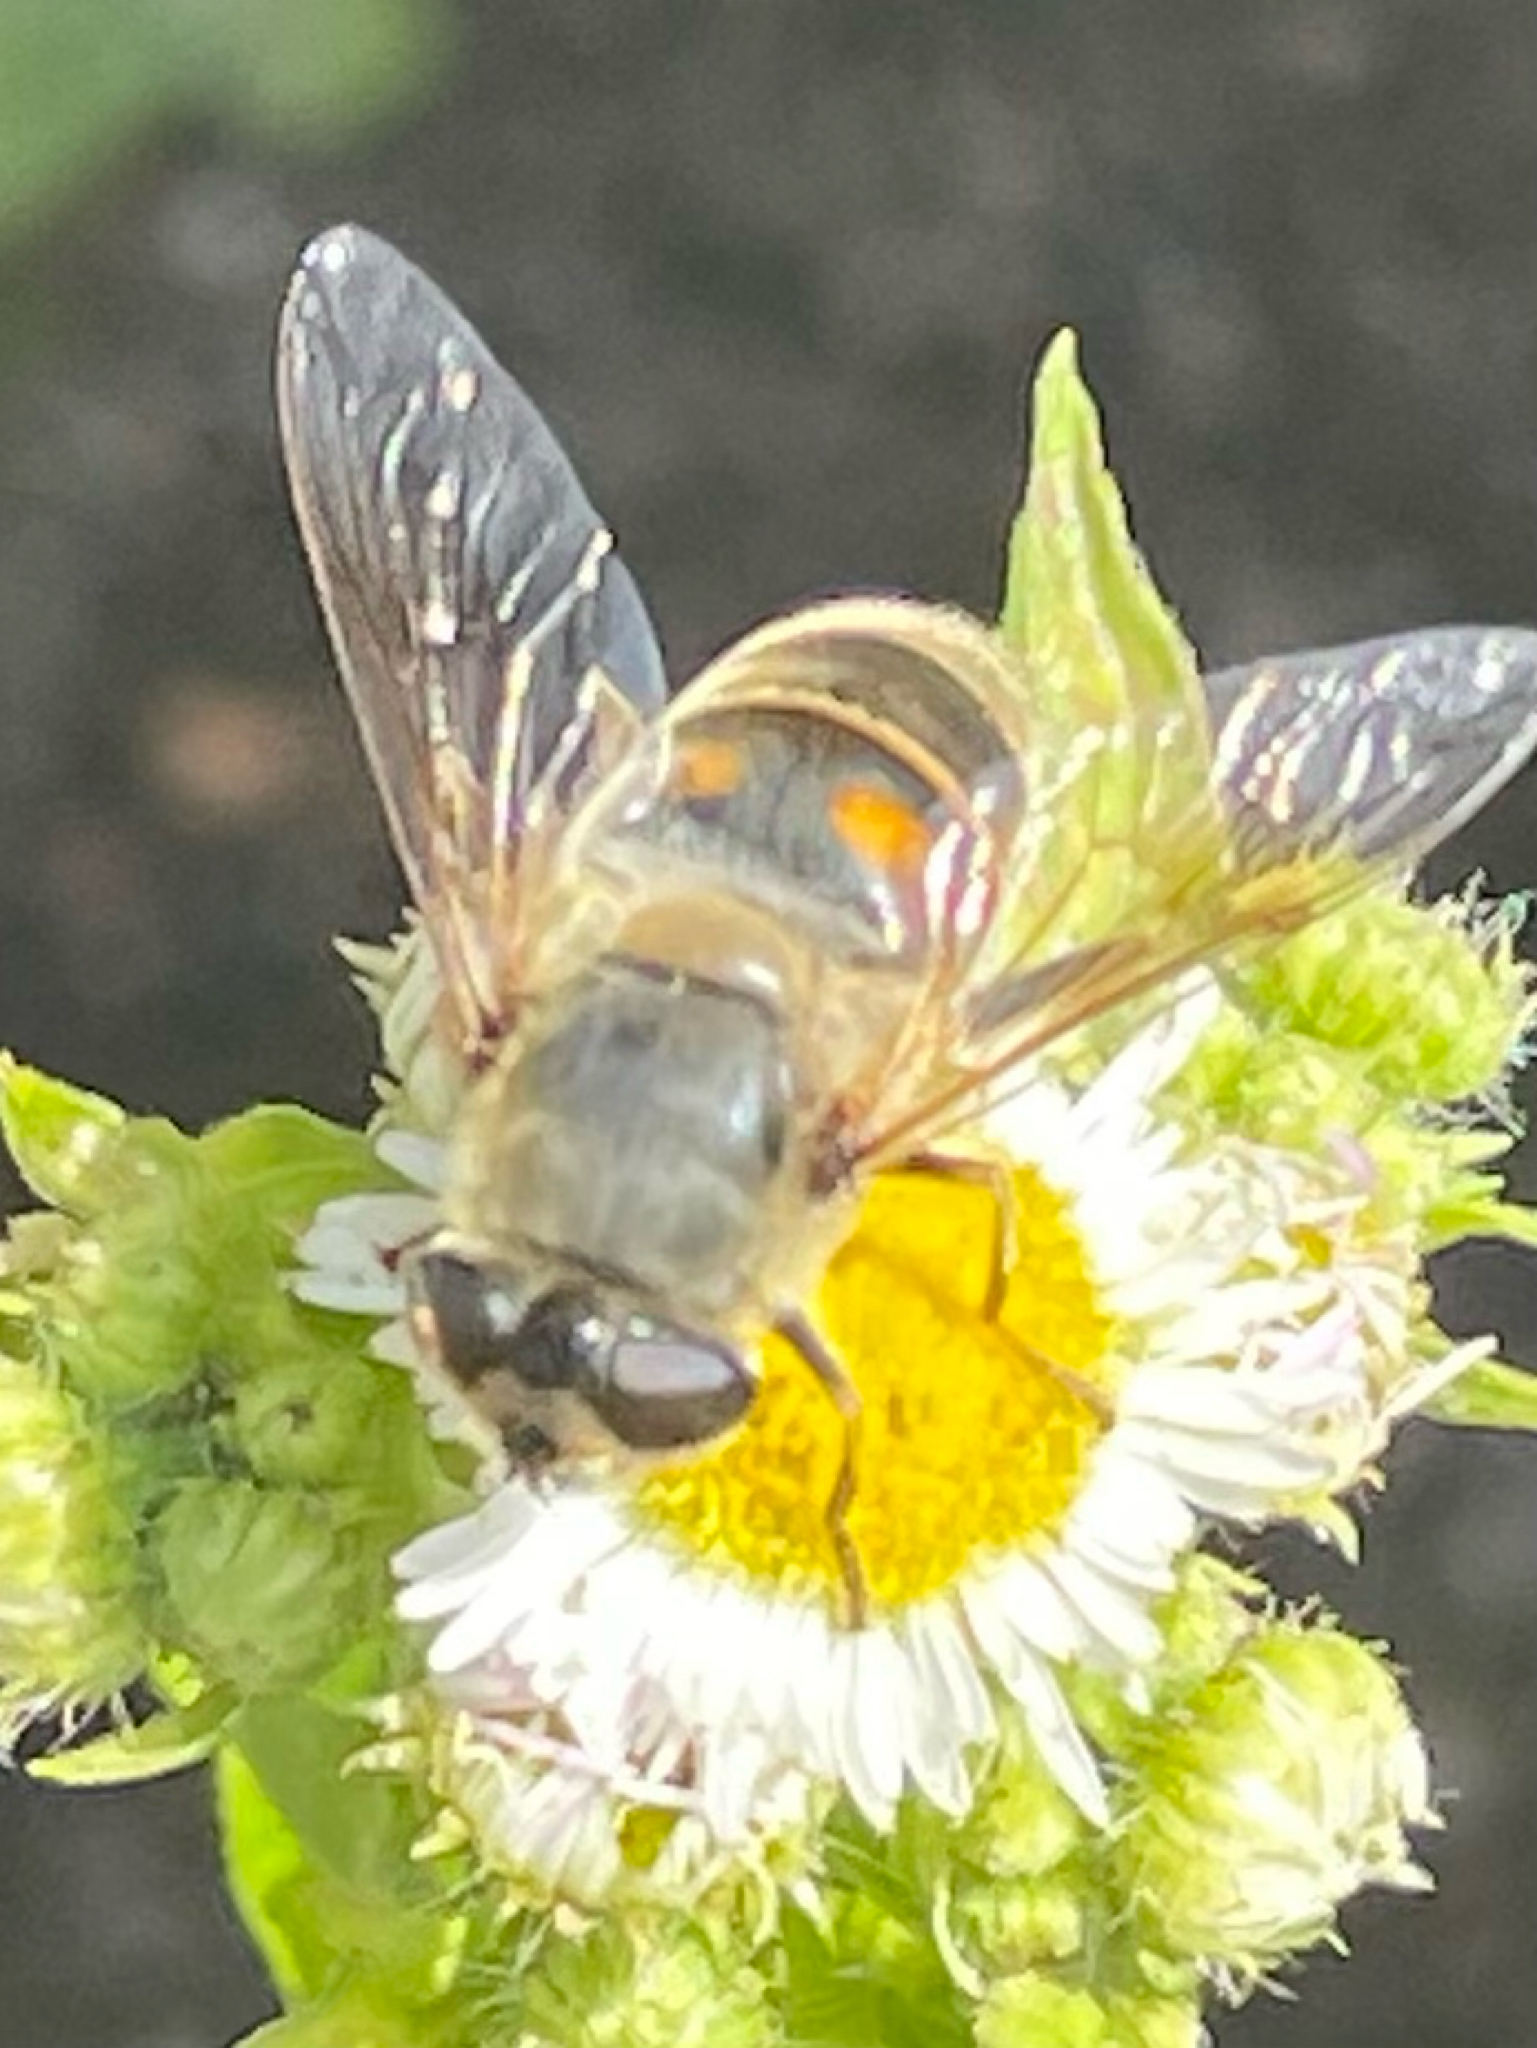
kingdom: Animalia
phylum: Arthropoda
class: Insecta
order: Diptera
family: Syrphidae
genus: Eristalis
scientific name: Eristalis tenax
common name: Drone fly
